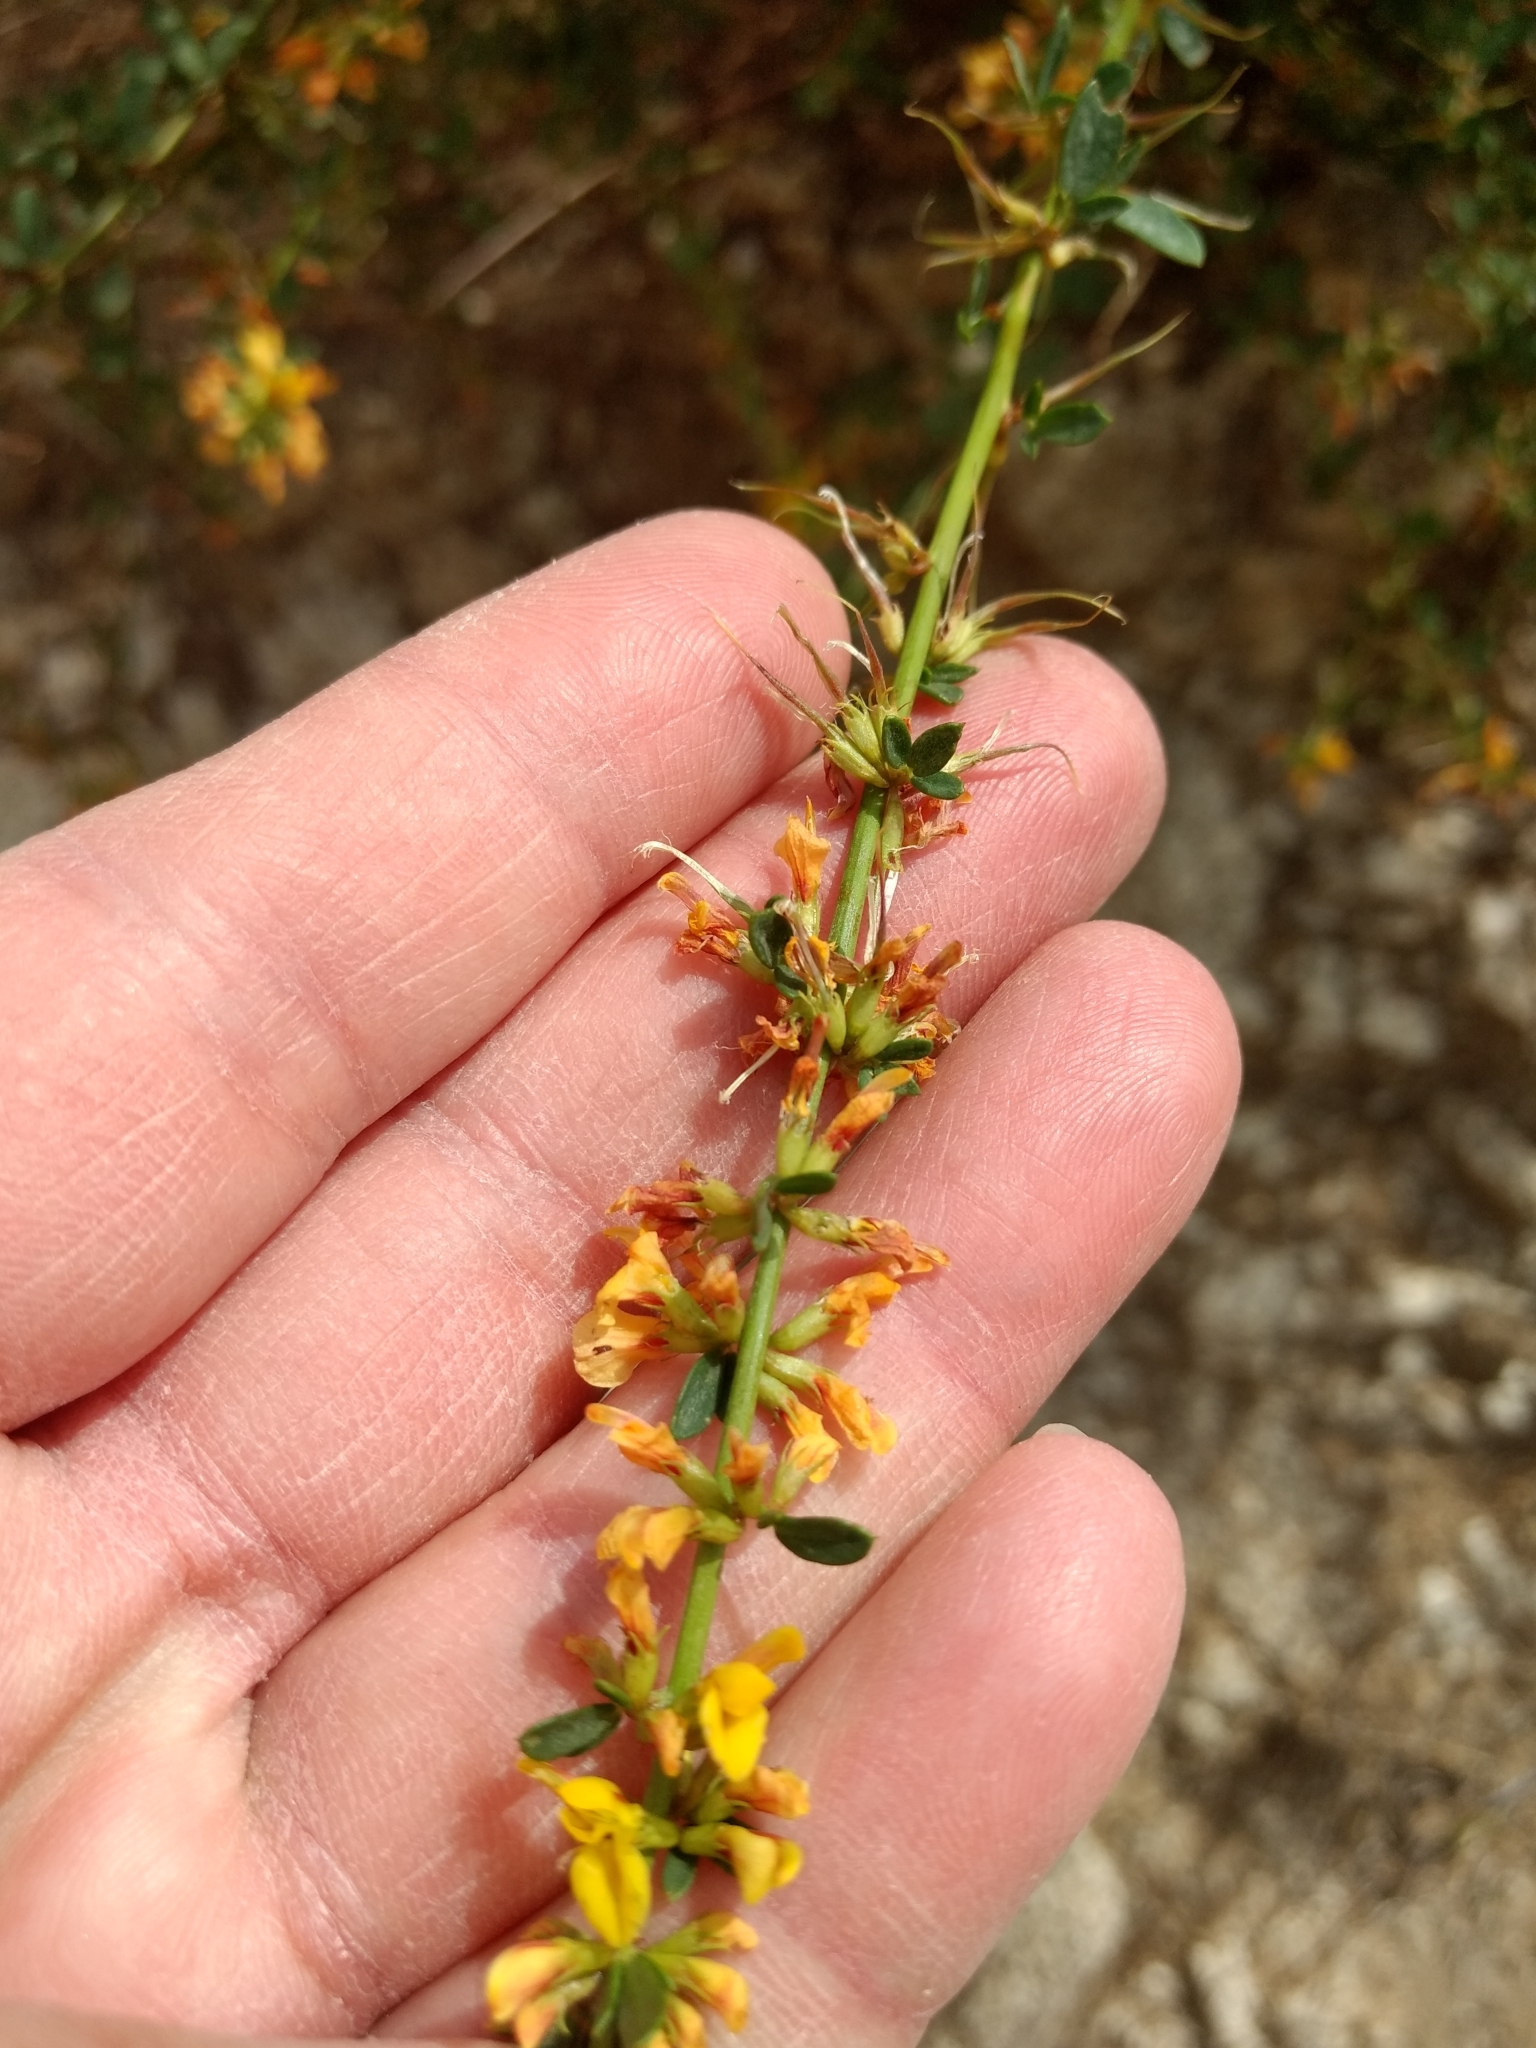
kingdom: Plantae
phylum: Tracheophyta
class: Magnoliopsida
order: Fabales
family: Fabaceae
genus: Acmispon
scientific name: Acmispon glaber
